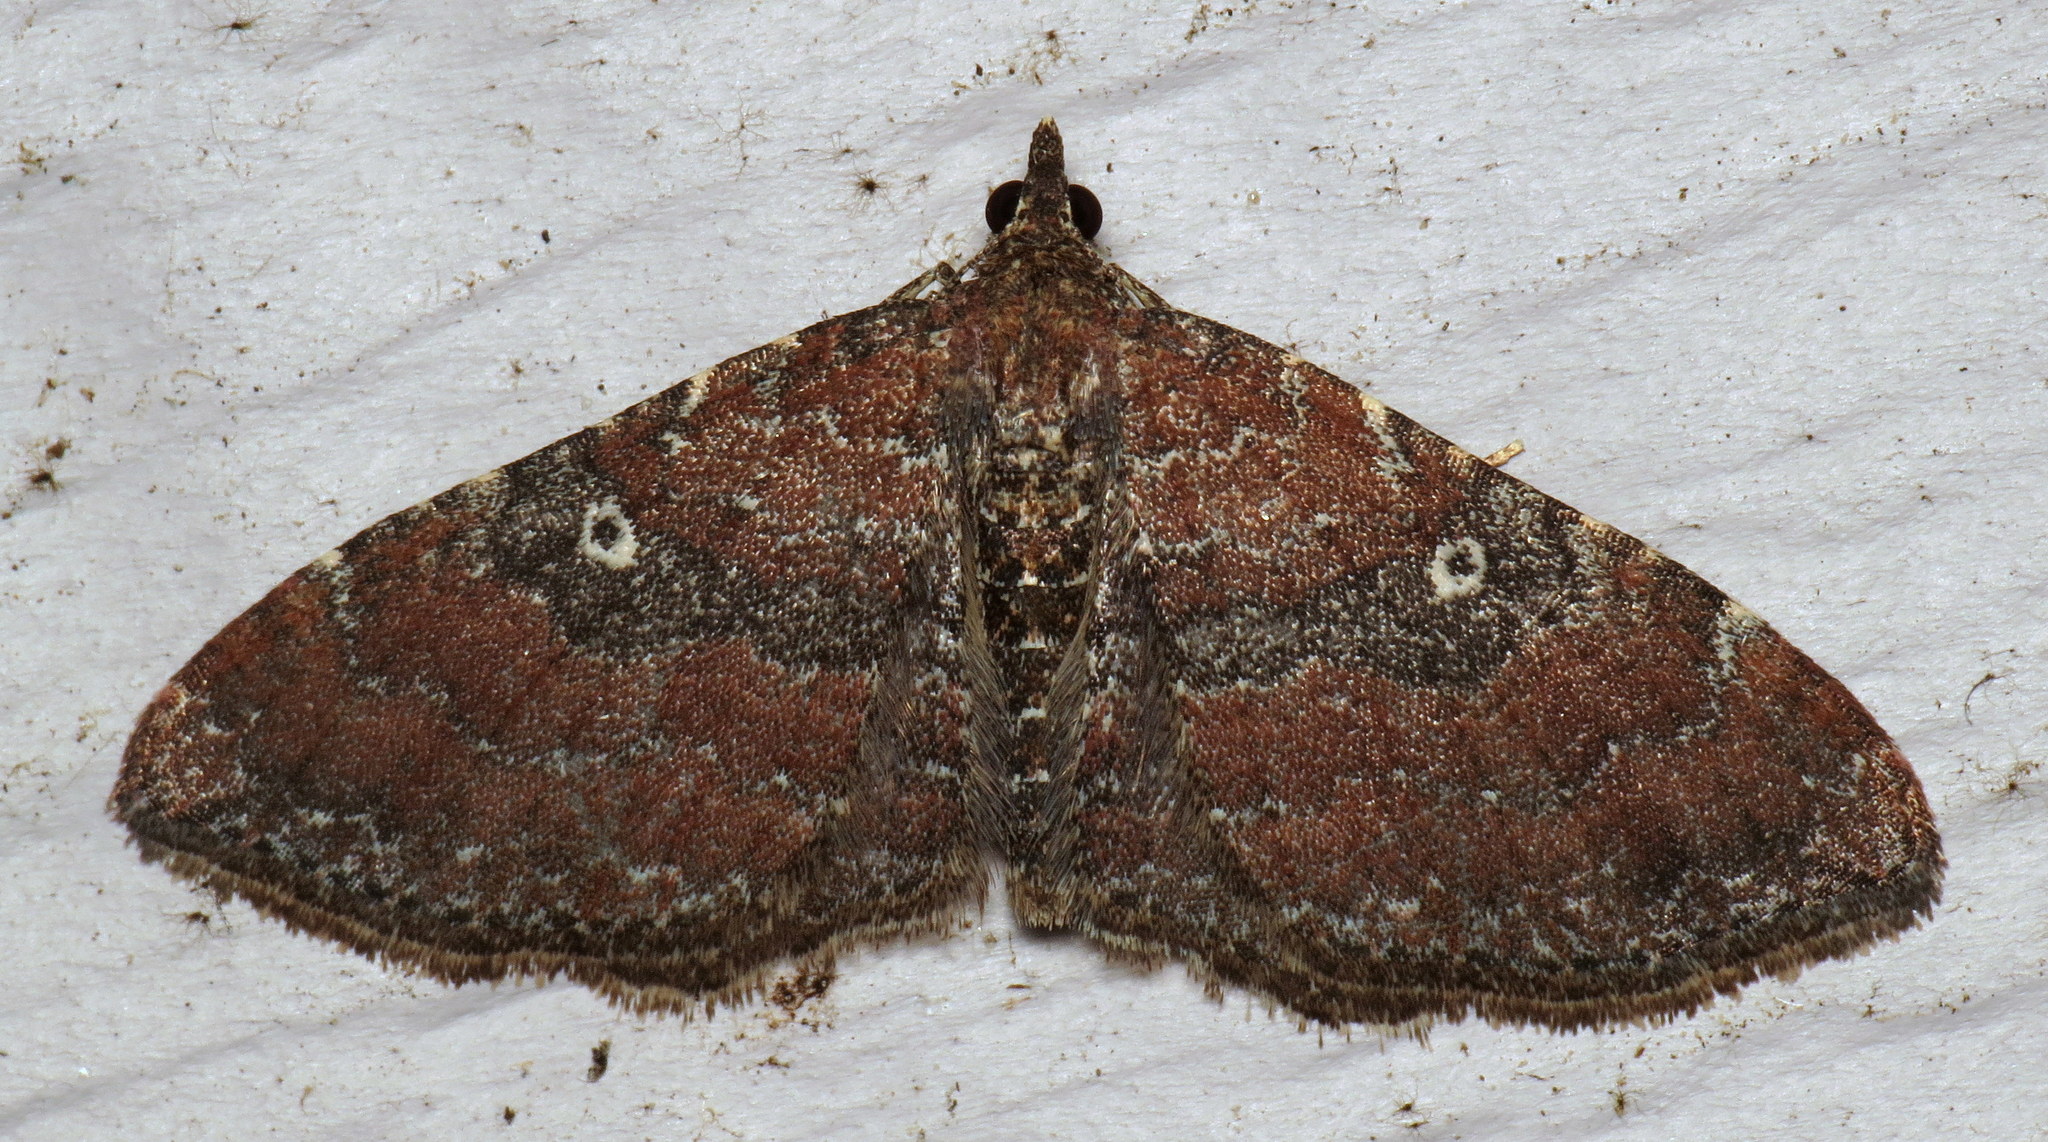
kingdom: Animalia
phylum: Arthropoda
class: Insecta
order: Lepidoptera
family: Geometridae
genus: Orthonama
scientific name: Orthonama obstipata
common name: The gem
